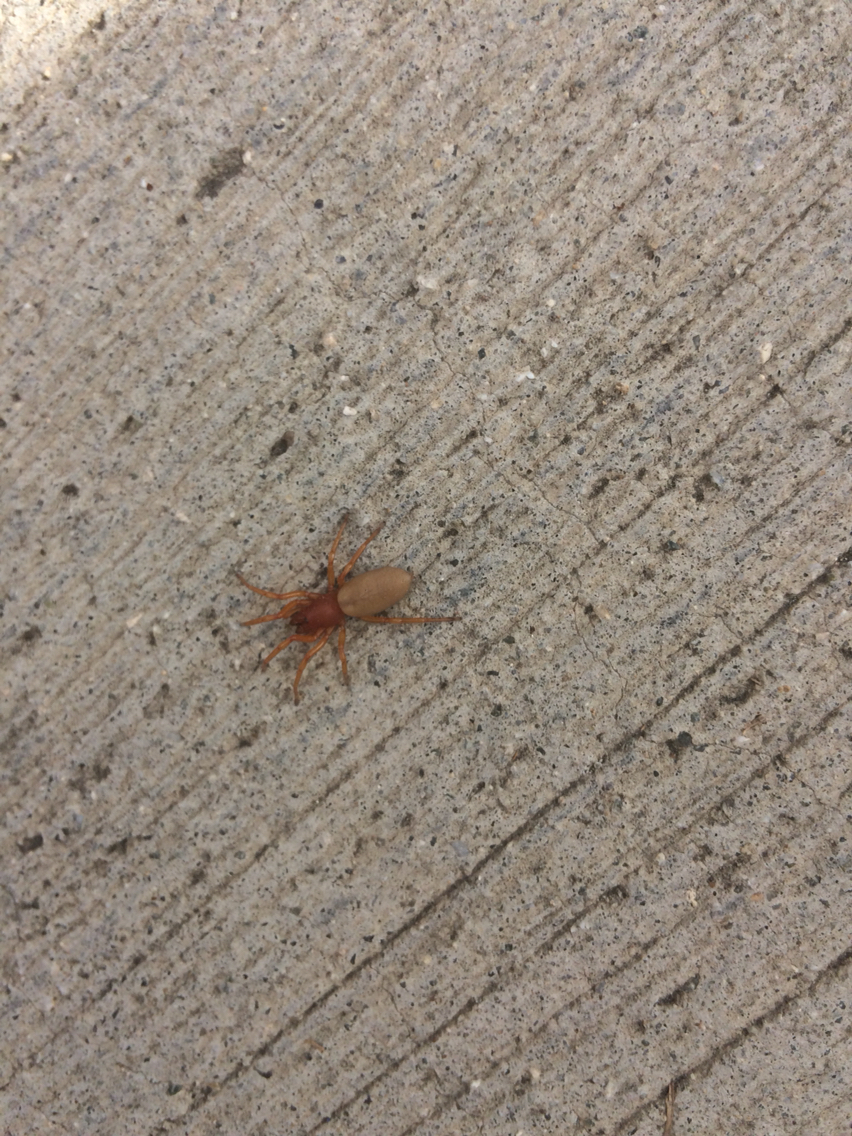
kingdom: Animalia
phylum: Arthropoda
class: Arachnida
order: Araneae
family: Dysderidae
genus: Dysdera
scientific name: Dysdera crocata
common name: Woodlouse spider
